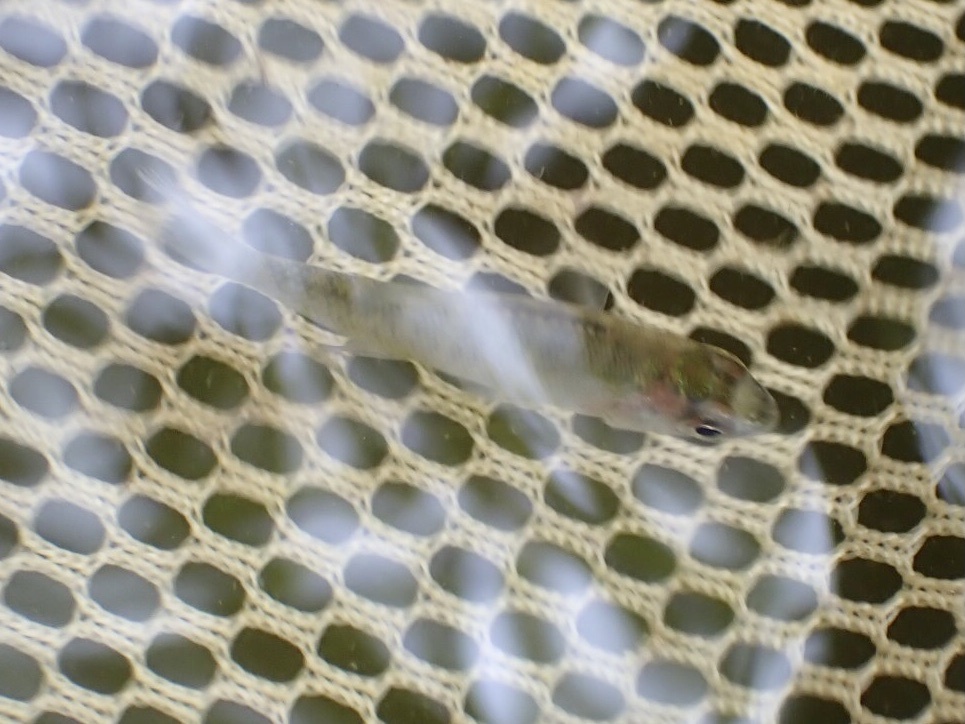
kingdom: Animalia
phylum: Chordata
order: Perciformes
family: Centrarchidae
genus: Lepomis
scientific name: Lepomis macrochirus
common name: Bluegill
